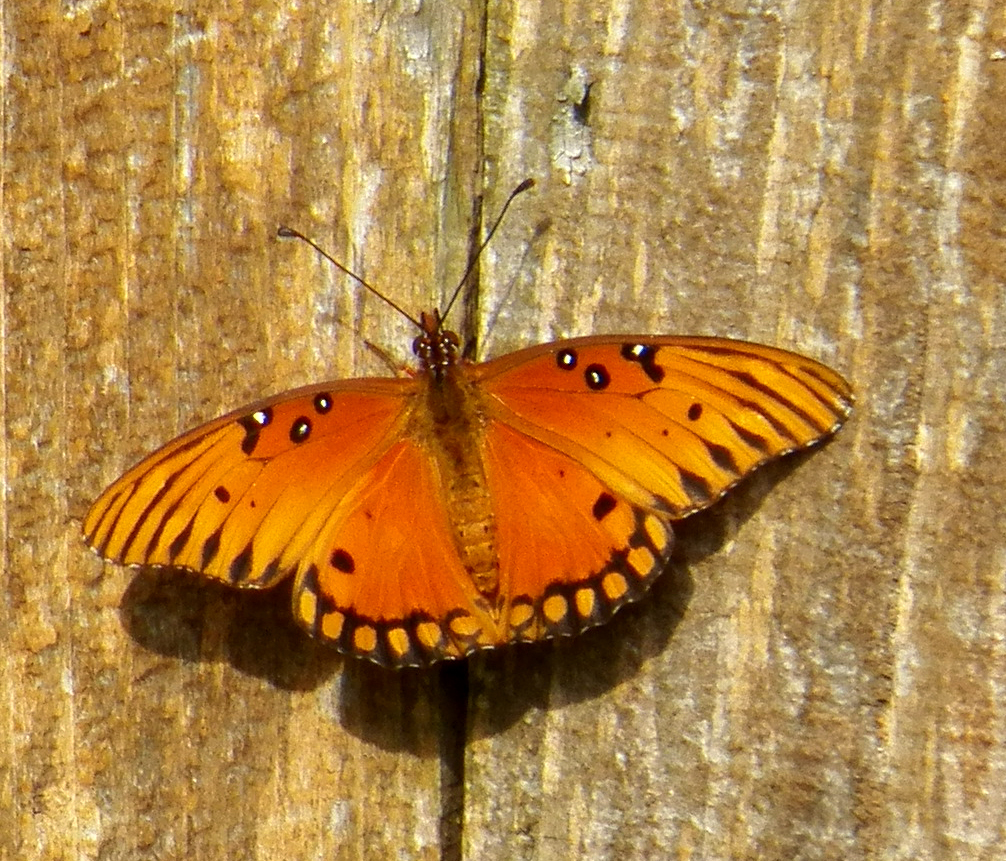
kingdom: Animalia
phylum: Arthropoda
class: Insecta
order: Lepidoptera
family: Nymphalidae
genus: Dione
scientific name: Dione vanillae
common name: Gulf fritillary
